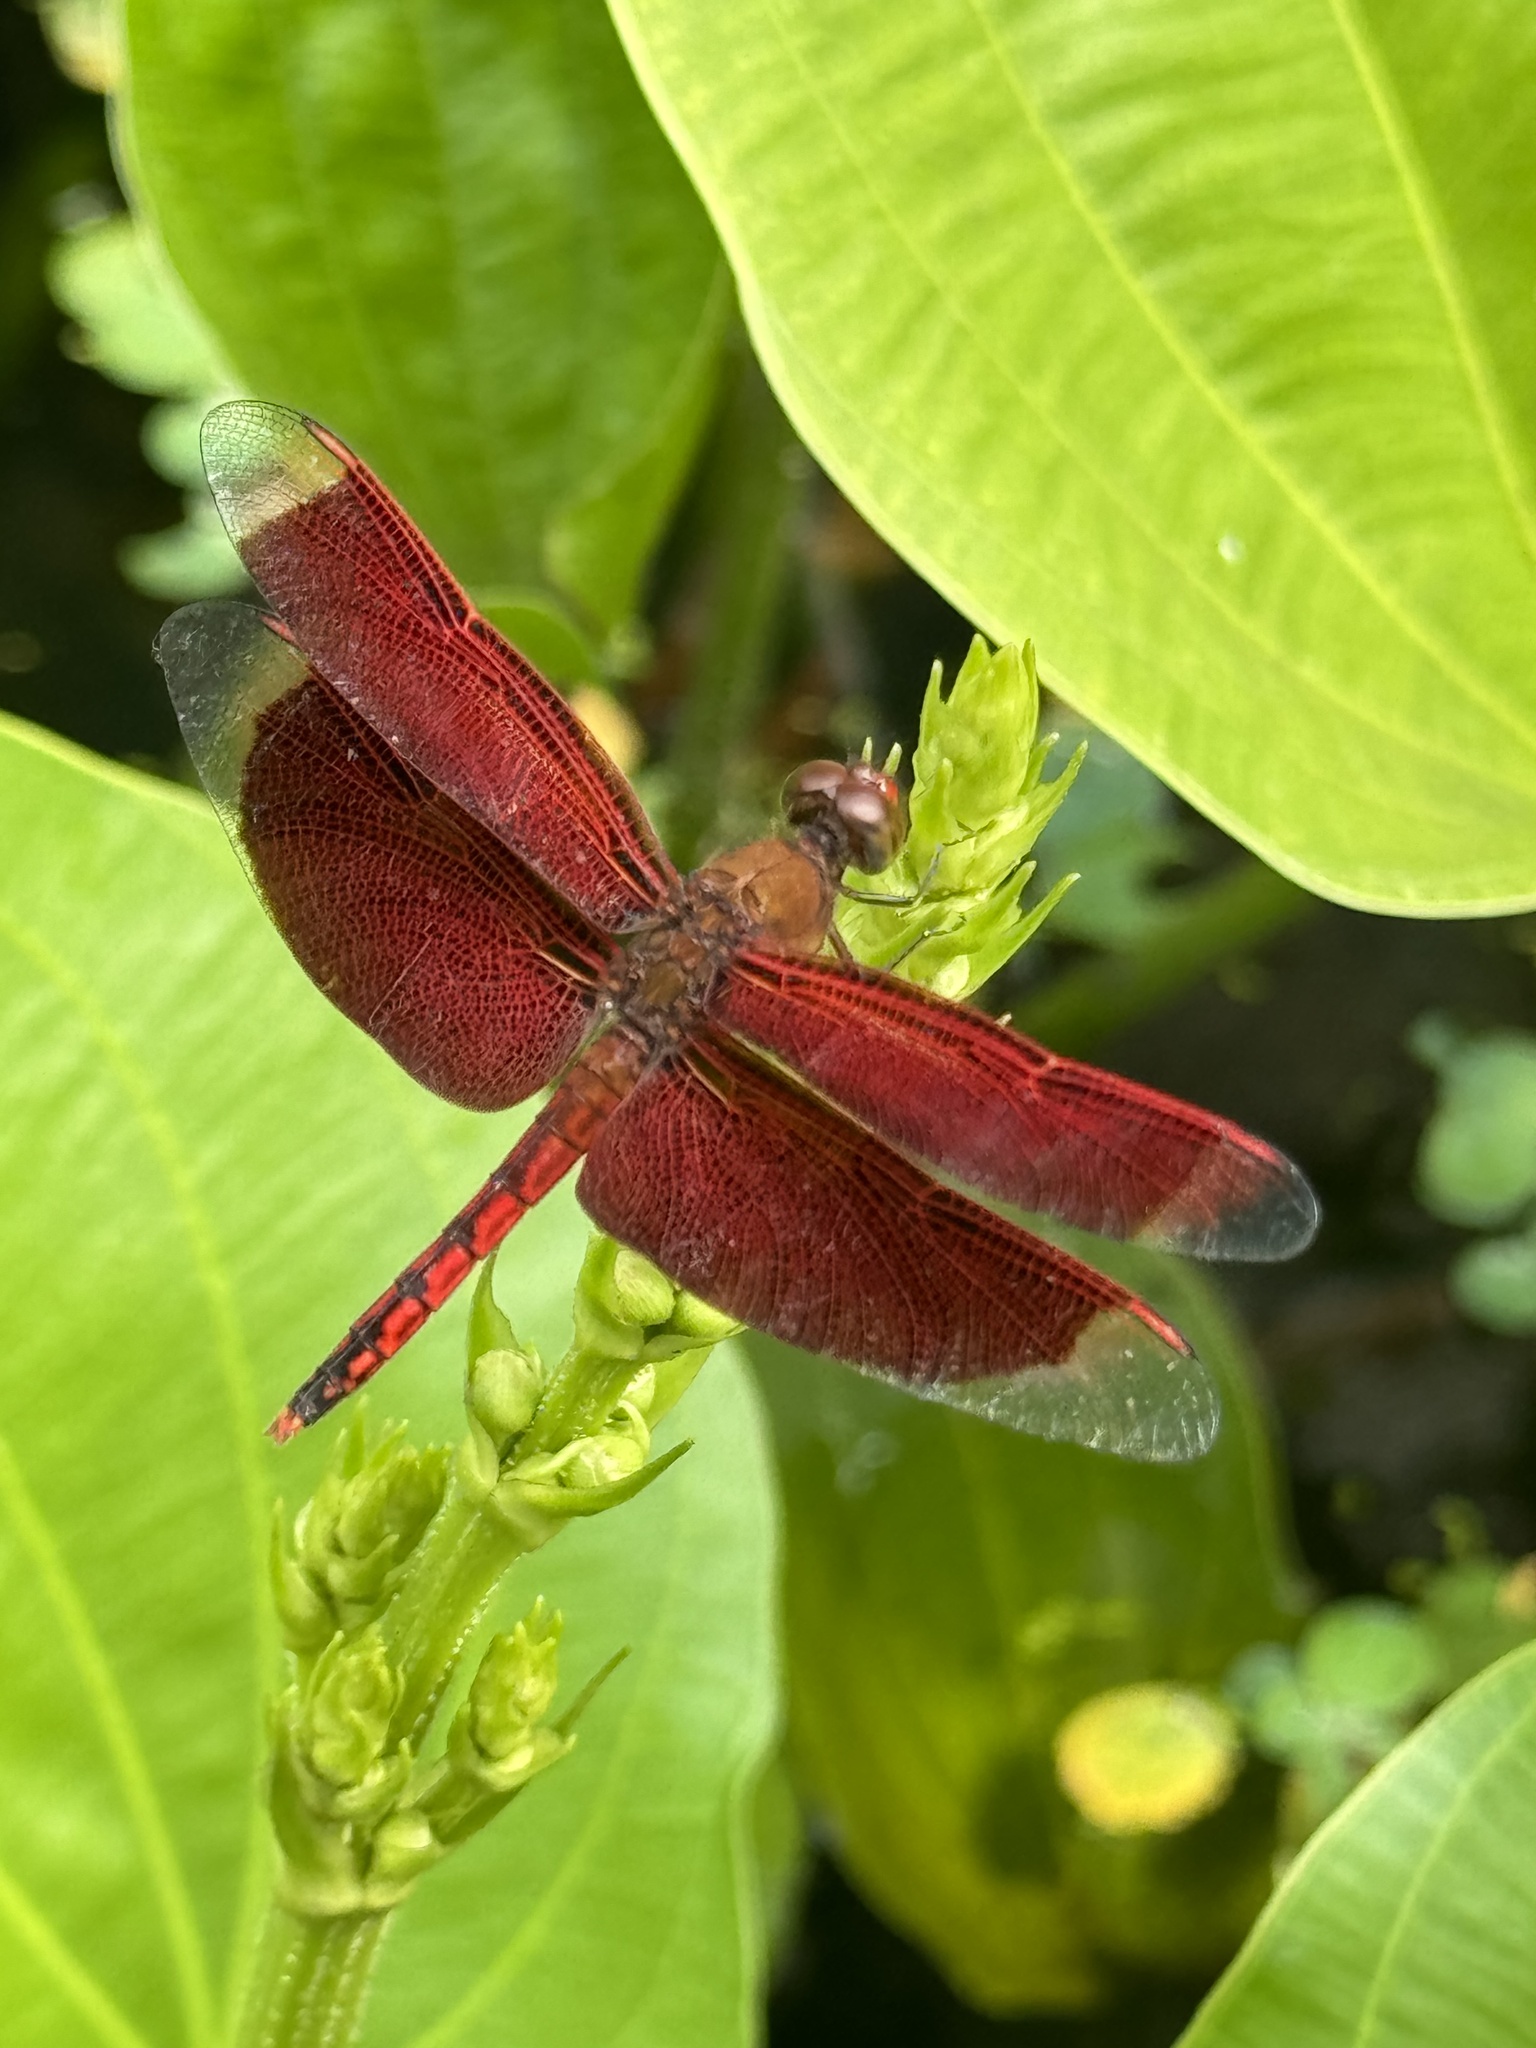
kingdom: Animalia
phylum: Arthropoda
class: Insecta
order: Odonata
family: Libellulidae
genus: Neurothemis
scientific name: Neurothemis ramburii
